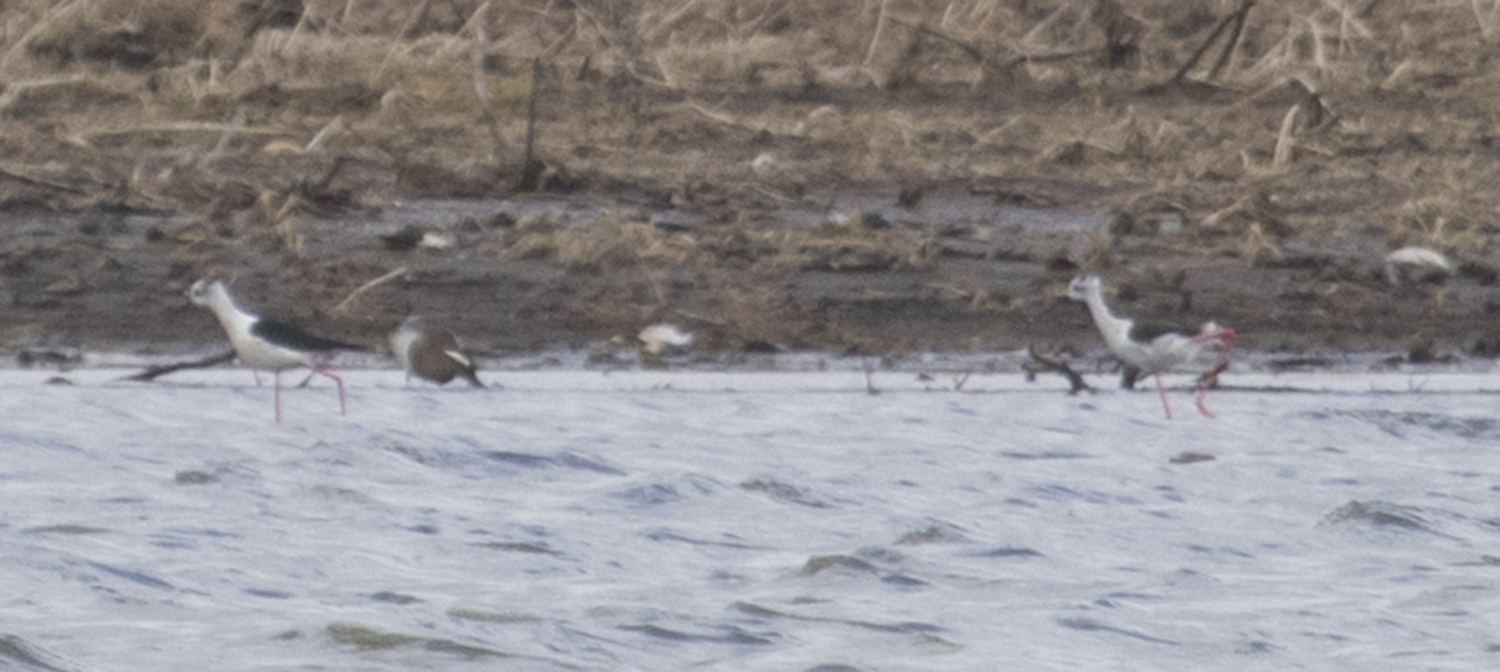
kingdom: Animalia
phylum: Chordata
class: Aves
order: Charadriiformes
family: Recurvirostridae
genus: Himantopus
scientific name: Himantopus himantopus
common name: Black-winged stilt
